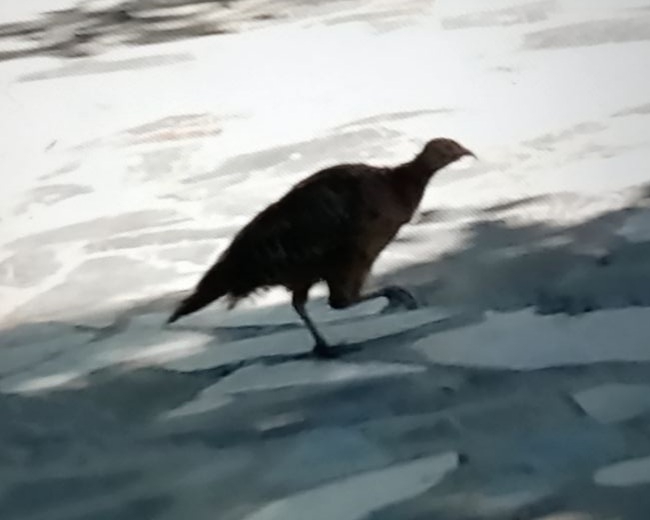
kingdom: Animalia
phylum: Chordata
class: Aves
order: Galliformes
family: Phasianidae
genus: Phasianus
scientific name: Phasianus colchicus
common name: Common pheasant
